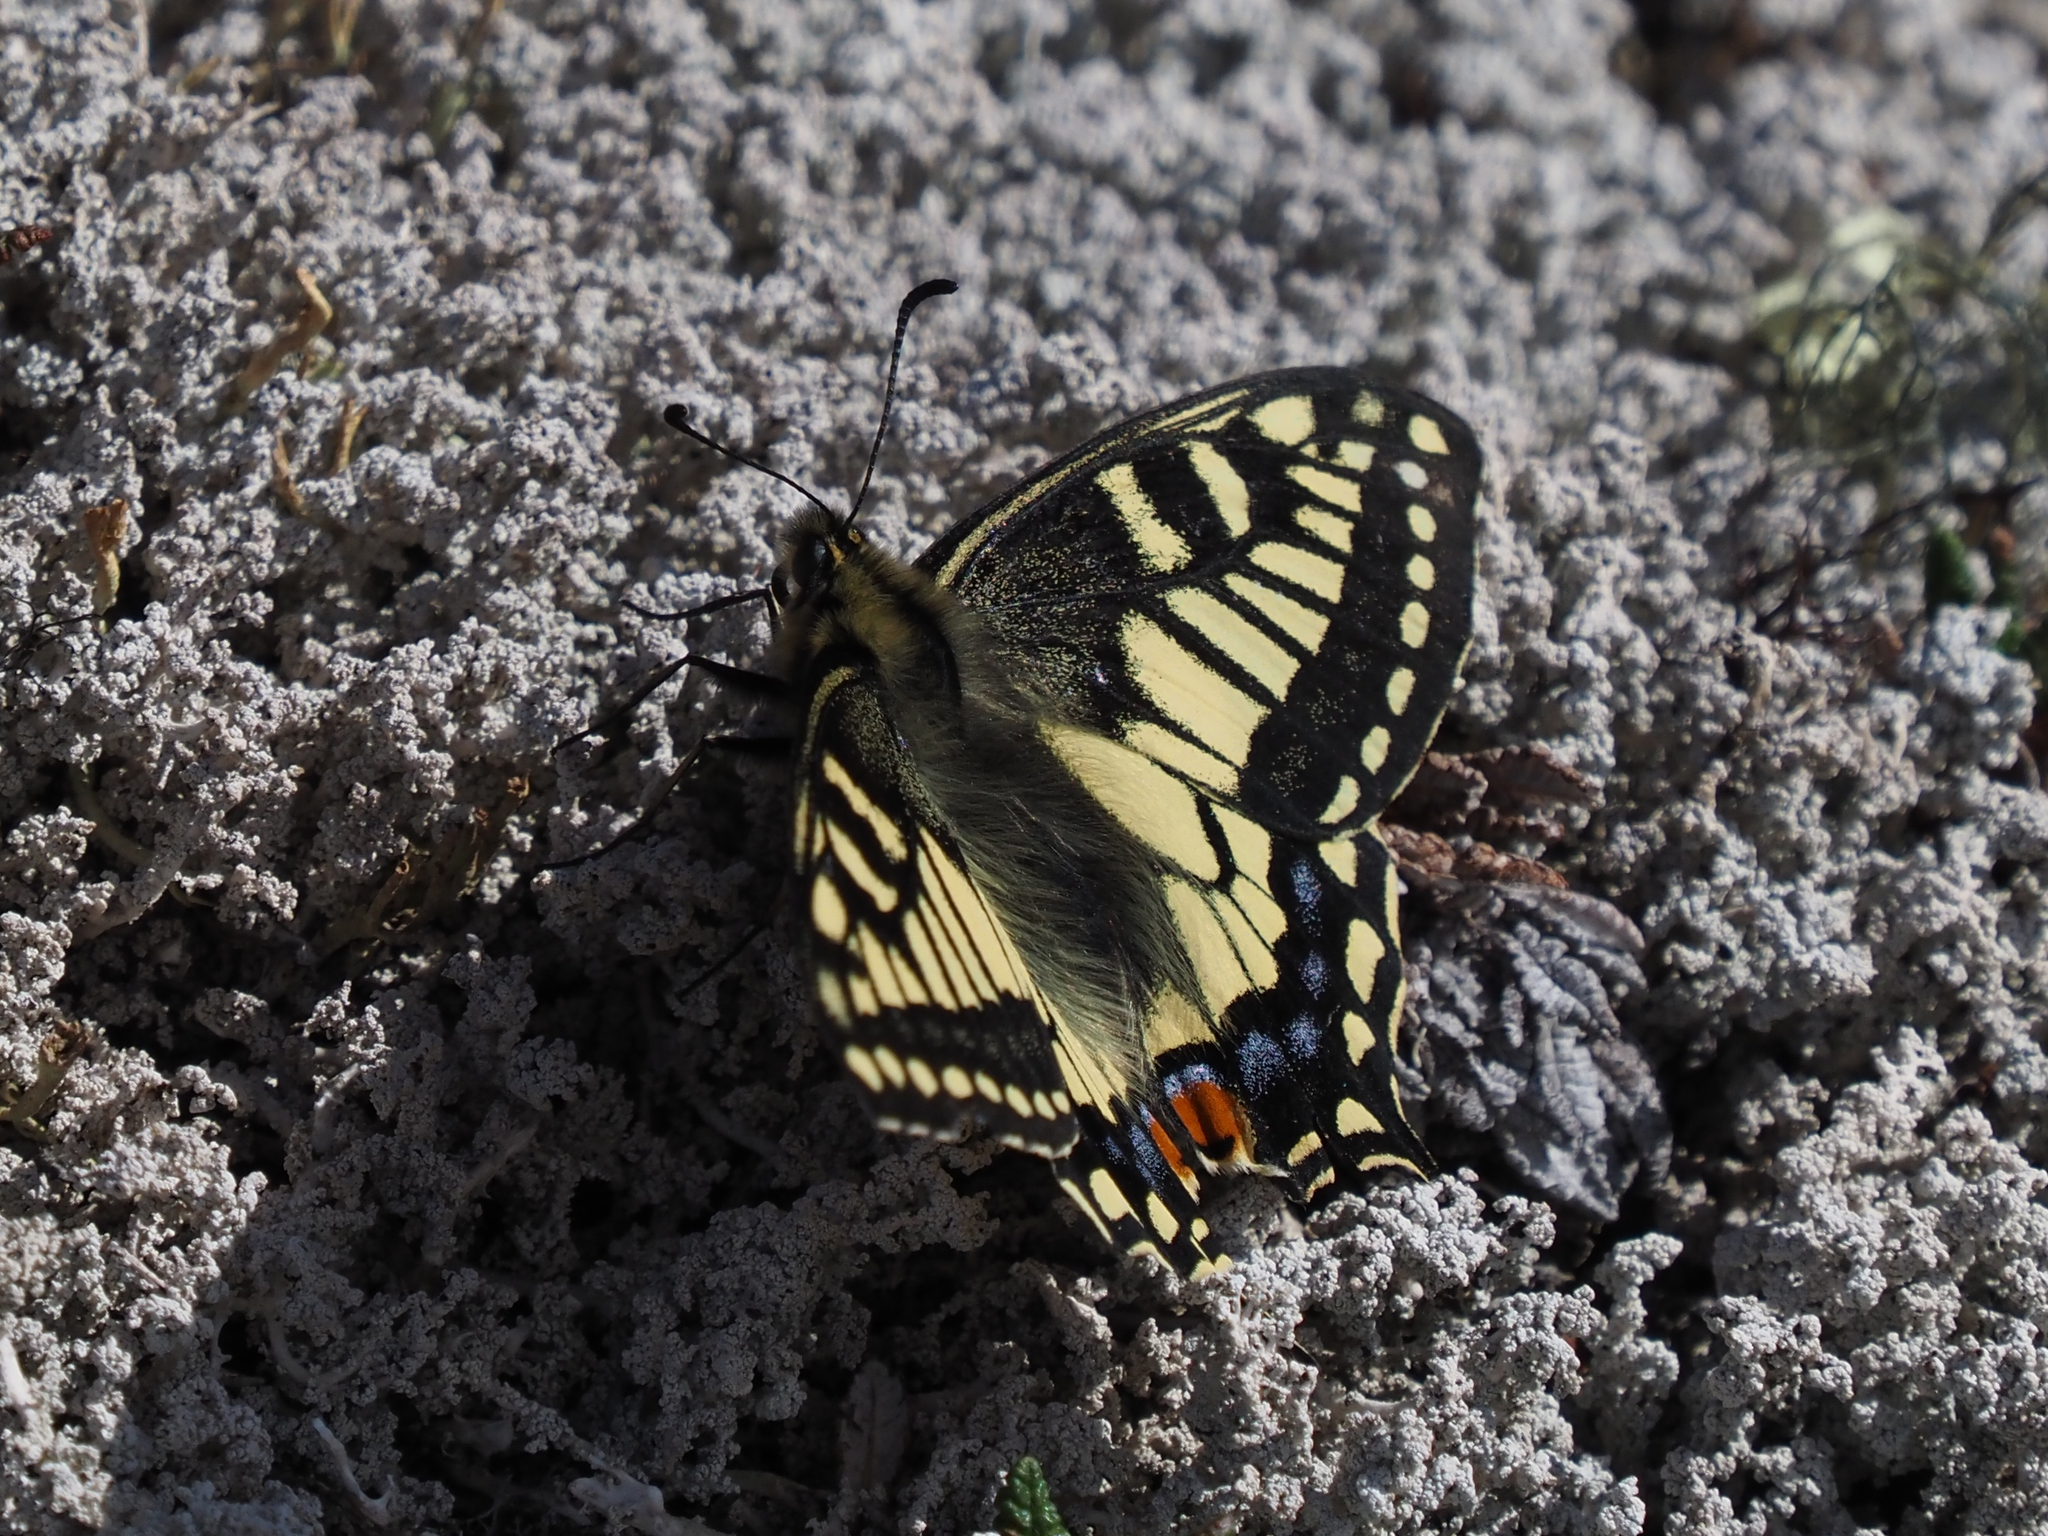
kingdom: Animalia
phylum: Arthropoda
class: Insecta
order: Lepidoptera
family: Papilionidae
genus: Papilio
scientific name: Papilio machaon
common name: Swallowtail
